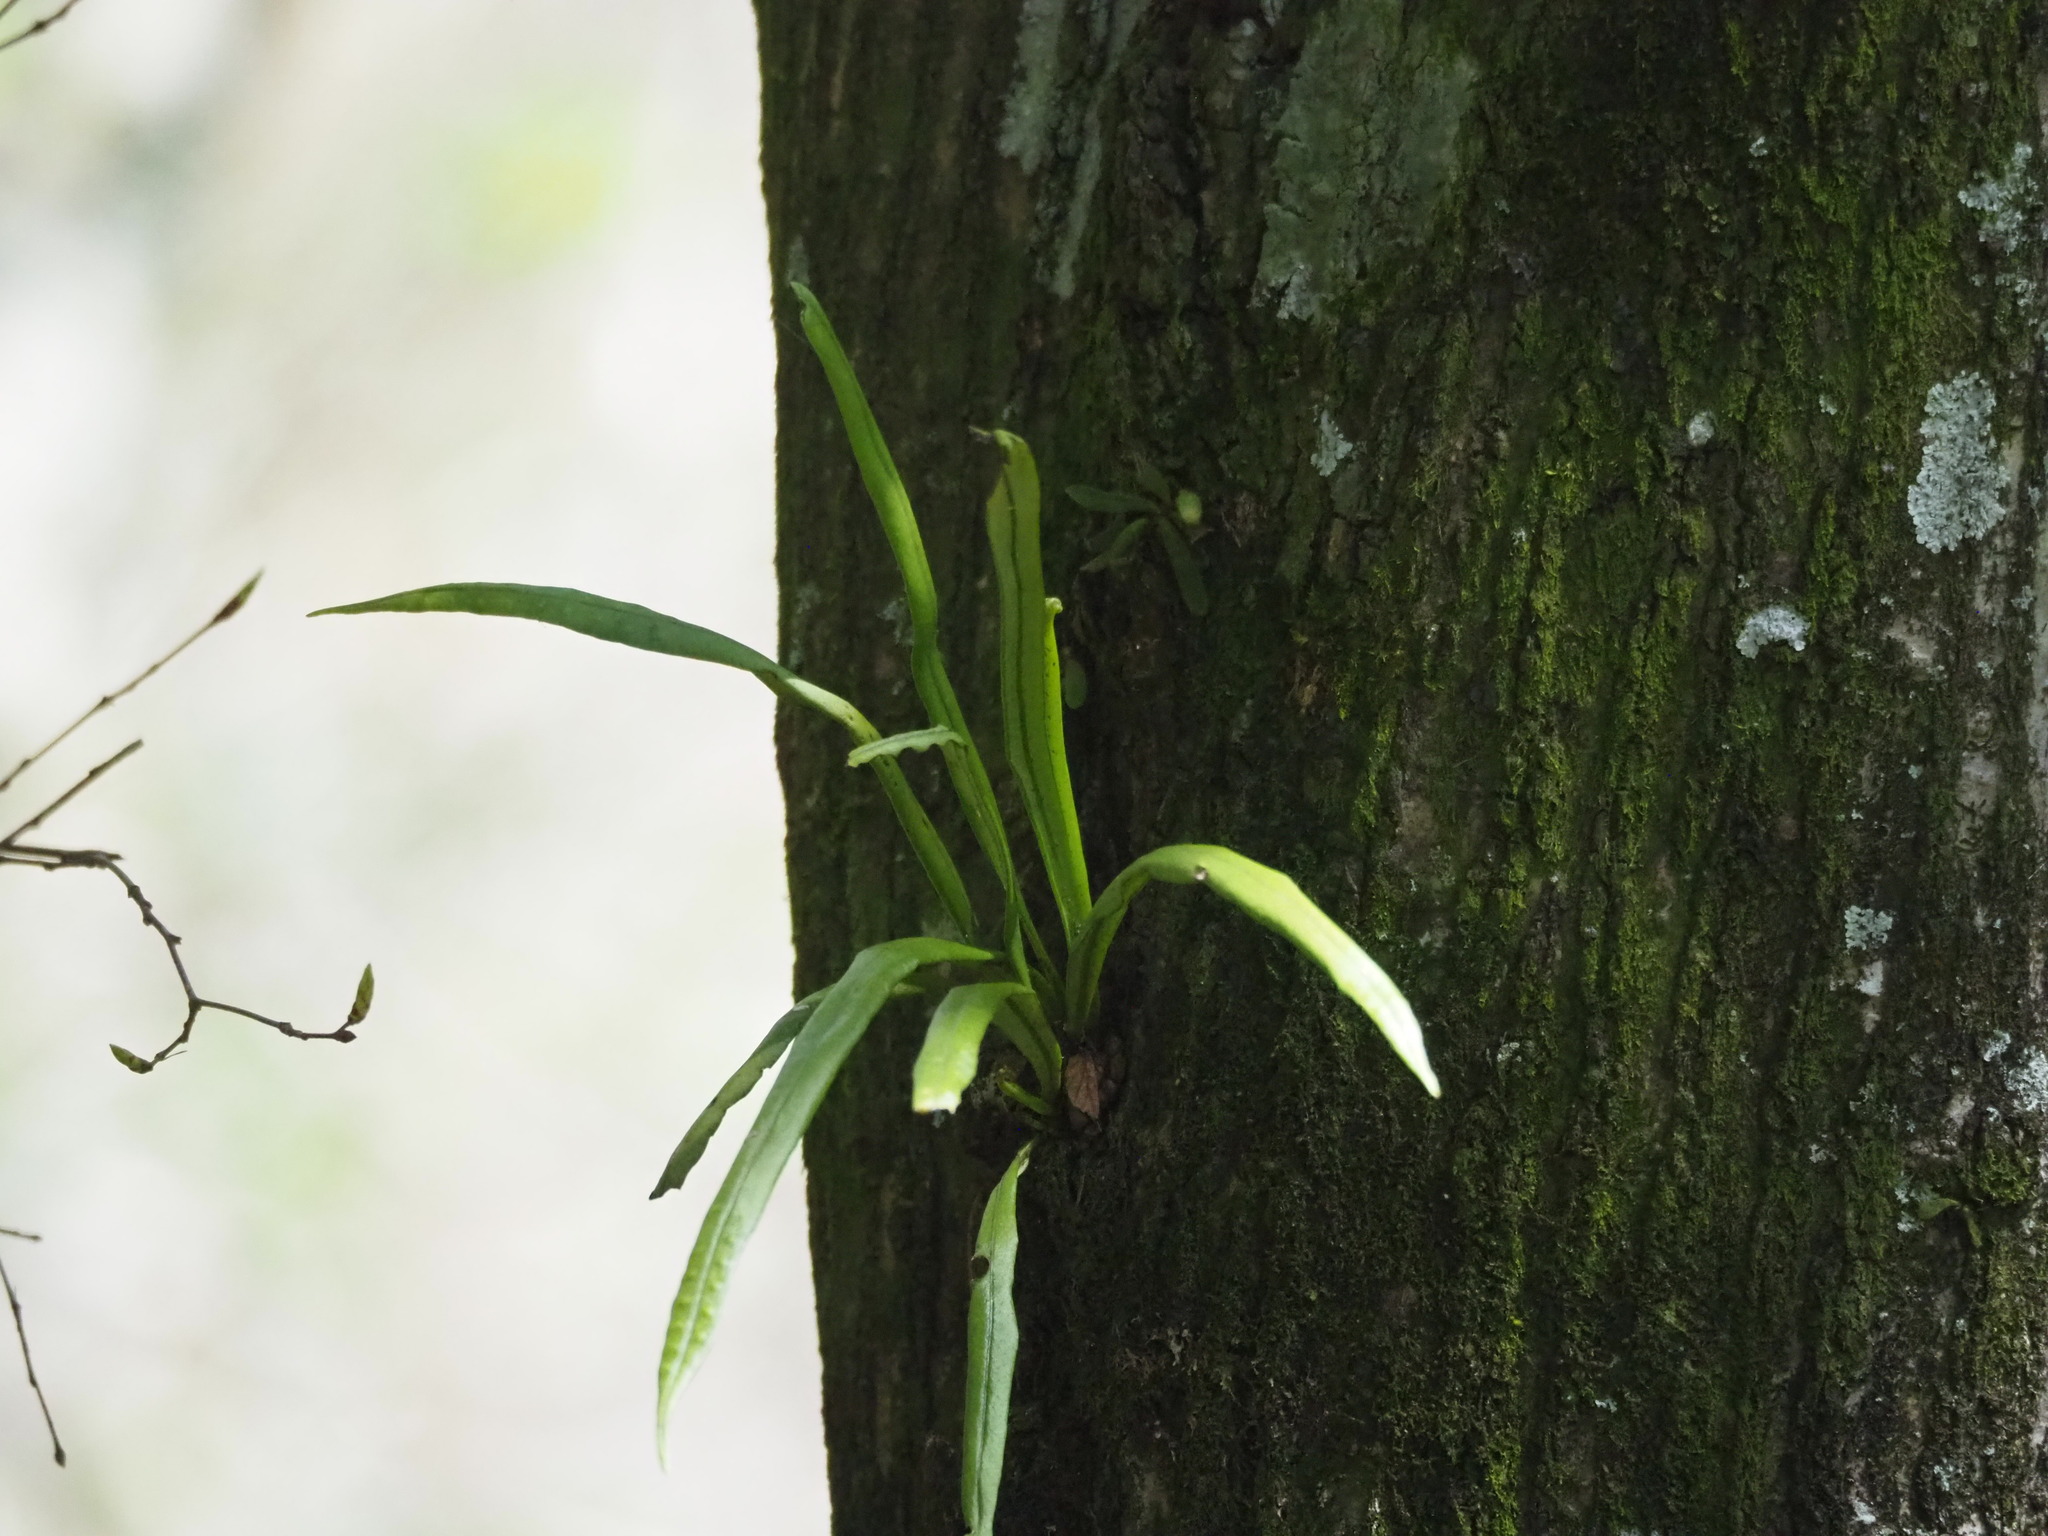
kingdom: Plantae
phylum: Tracheophyta
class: Polypodiopsida
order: Polypodiales
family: Polypodiaceae
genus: Lepisorus
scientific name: Lepisorus thunbergianus
